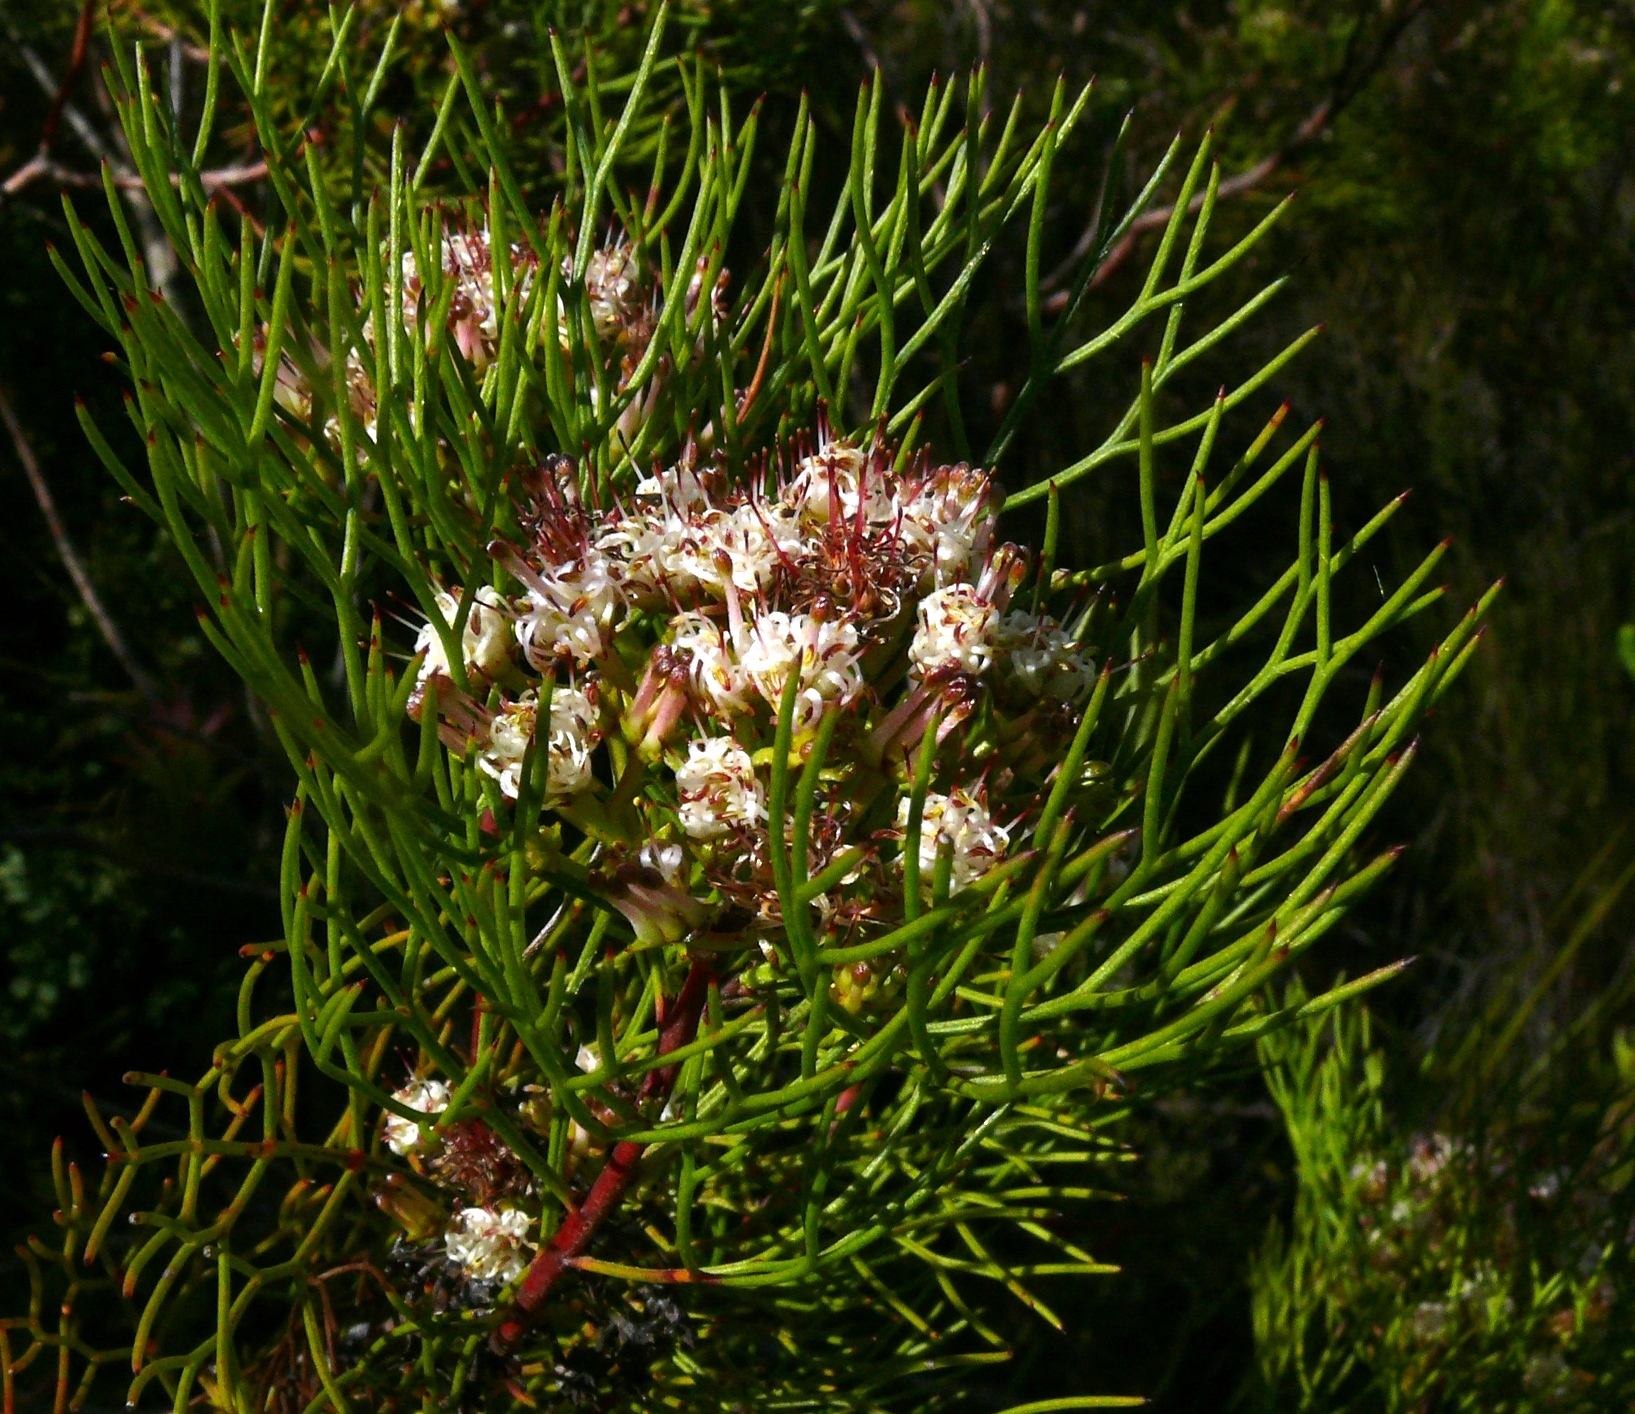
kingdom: Plantae
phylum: Tracheophyta
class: Magnoliopsida
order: Proteales
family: Proteaceae
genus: Serruria
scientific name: Serruria fasciflora
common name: Common pin spiderhead
